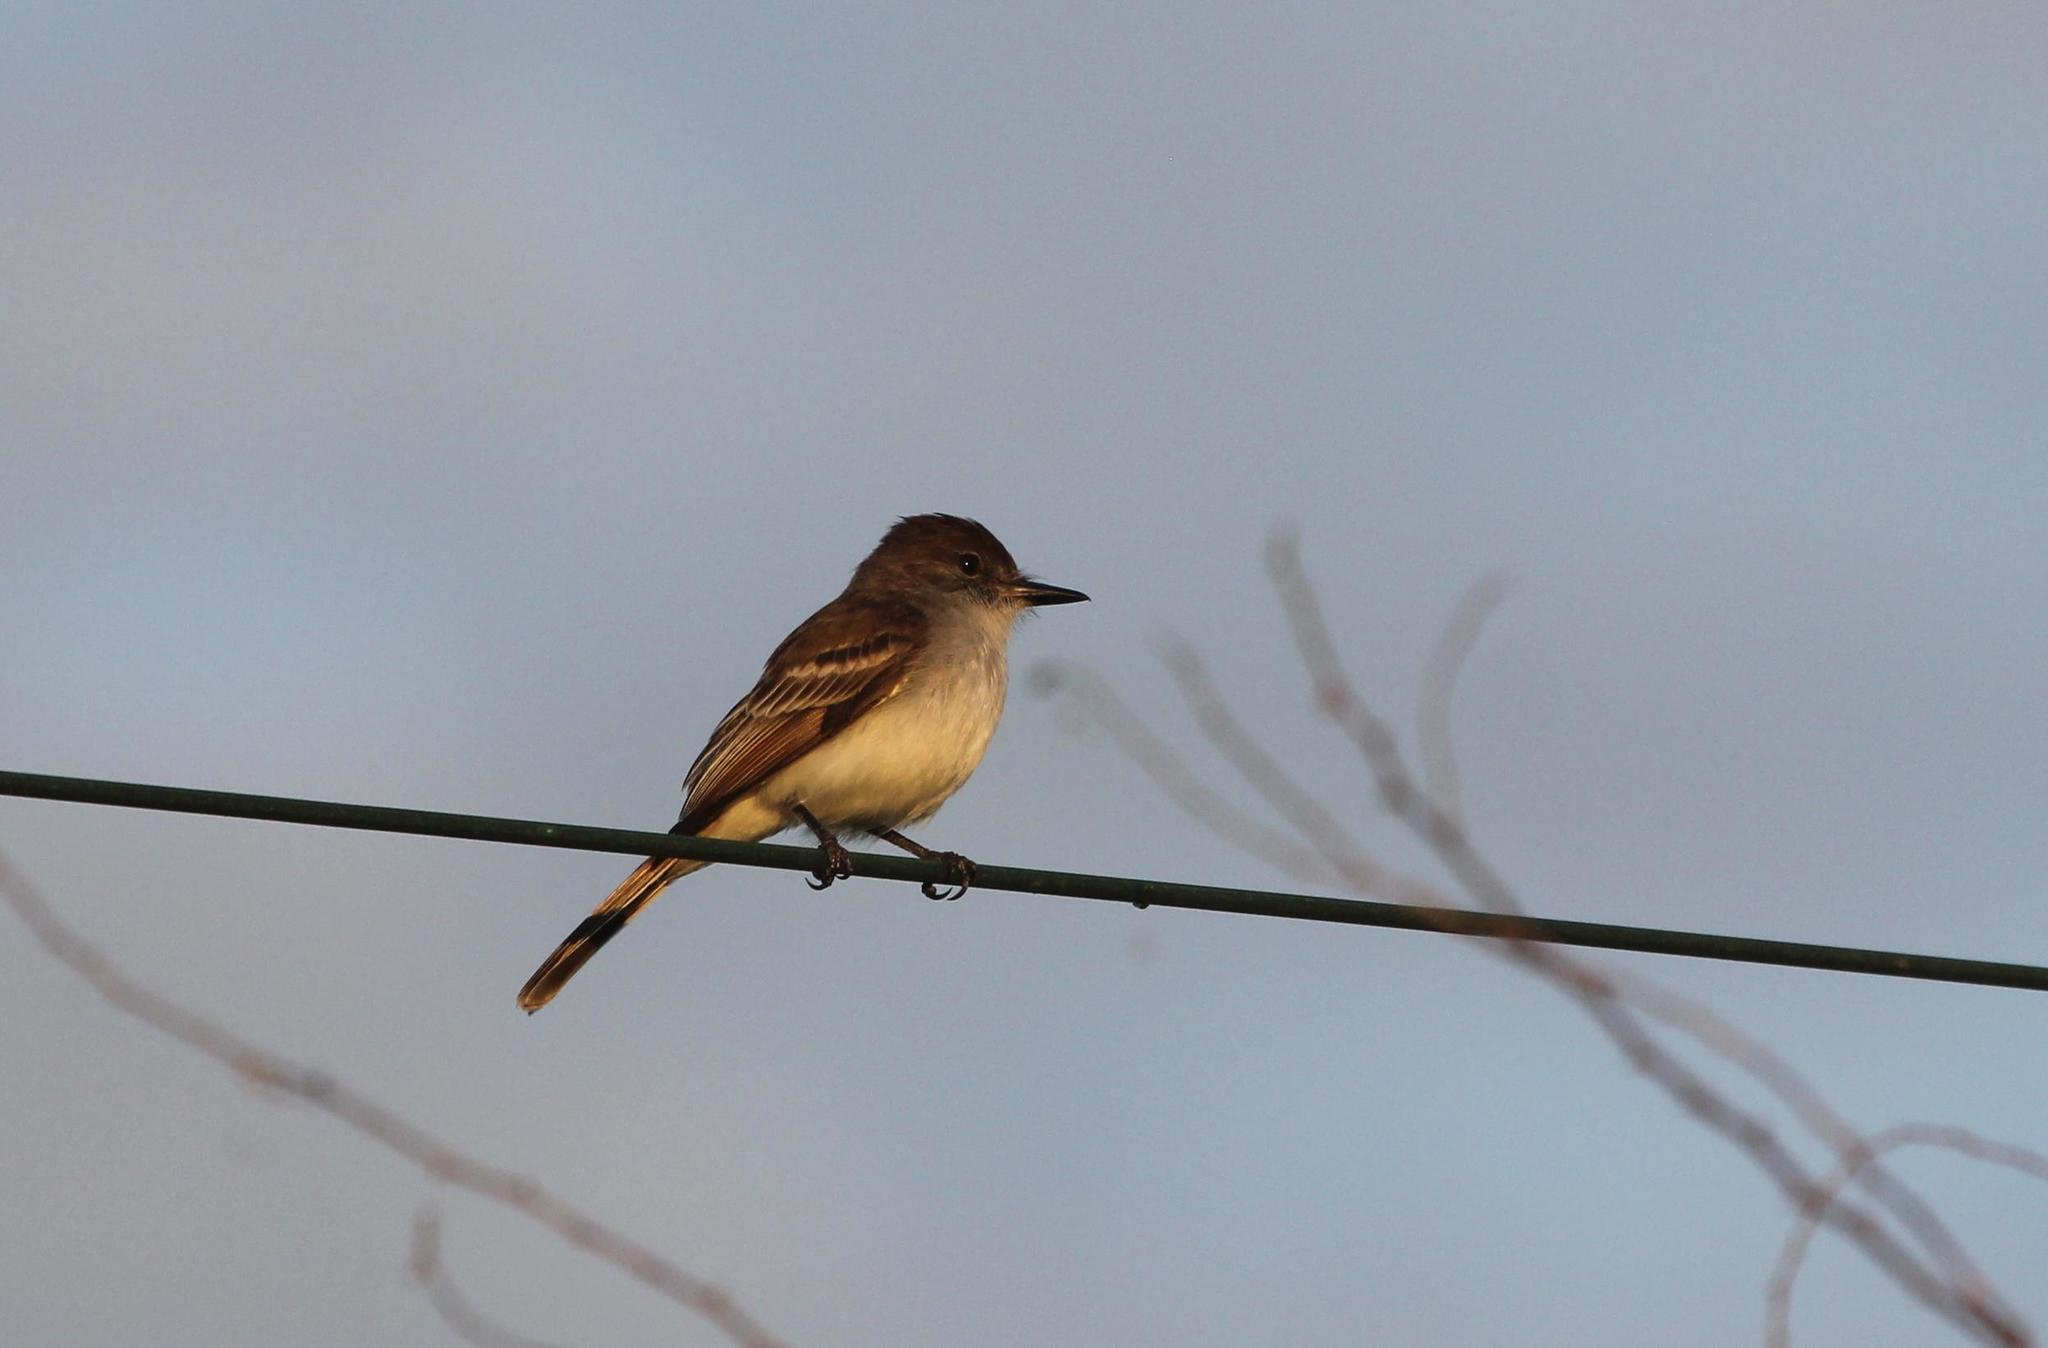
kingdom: Animalia
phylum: Chordata
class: Aves
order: Passeriformes
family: Tyrannidae
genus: Myiarchus
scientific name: Myiarchus antillarum
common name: Puerto rican flycatcher
